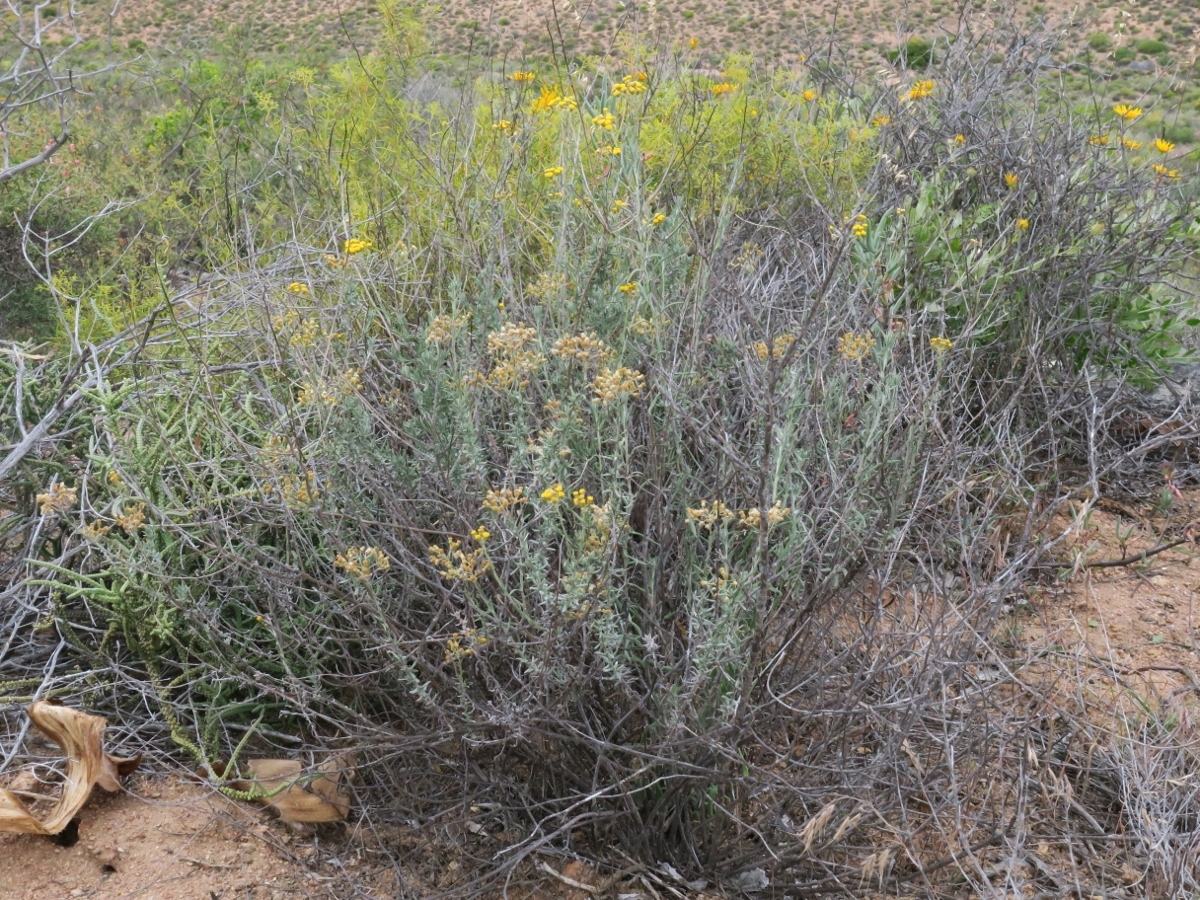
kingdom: Plantae
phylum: Tracheophyta
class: Magnoliopsida
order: Asterales
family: Asteraceae
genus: Helichrysum
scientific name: Helichrysum revolutum
